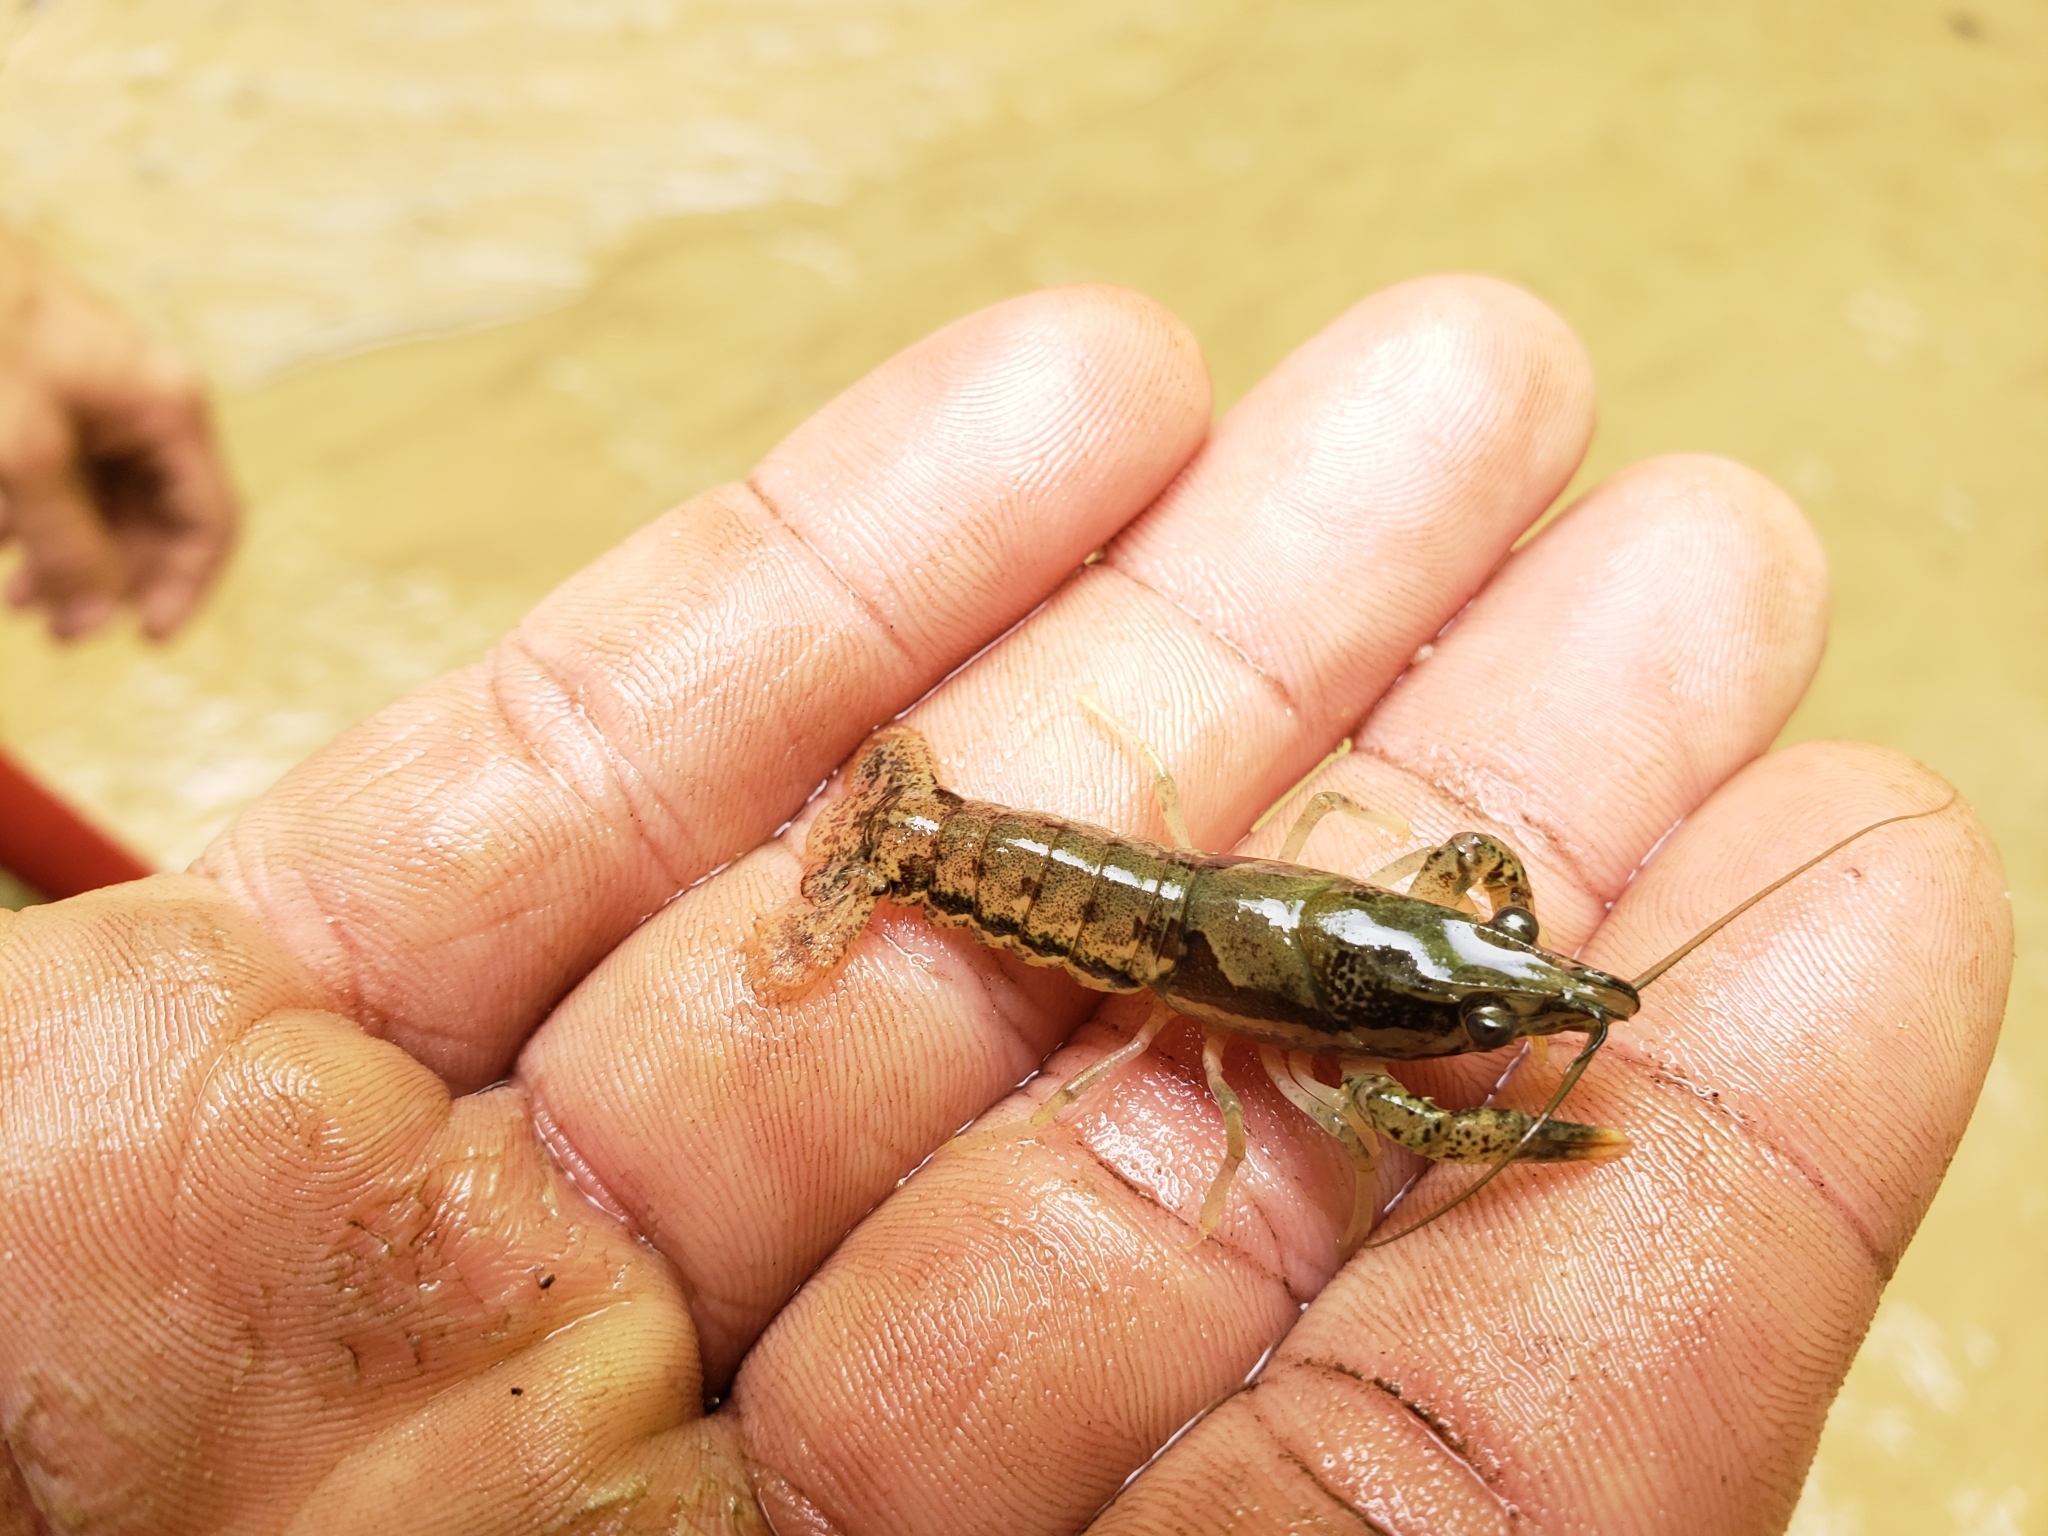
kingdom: Animalia
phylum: Arthropoda
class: Malacostraca
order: Decapoda
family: Cambaridae
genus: Procambarus
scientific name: Procambarus vioscai
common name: Percy's creek crayfish
